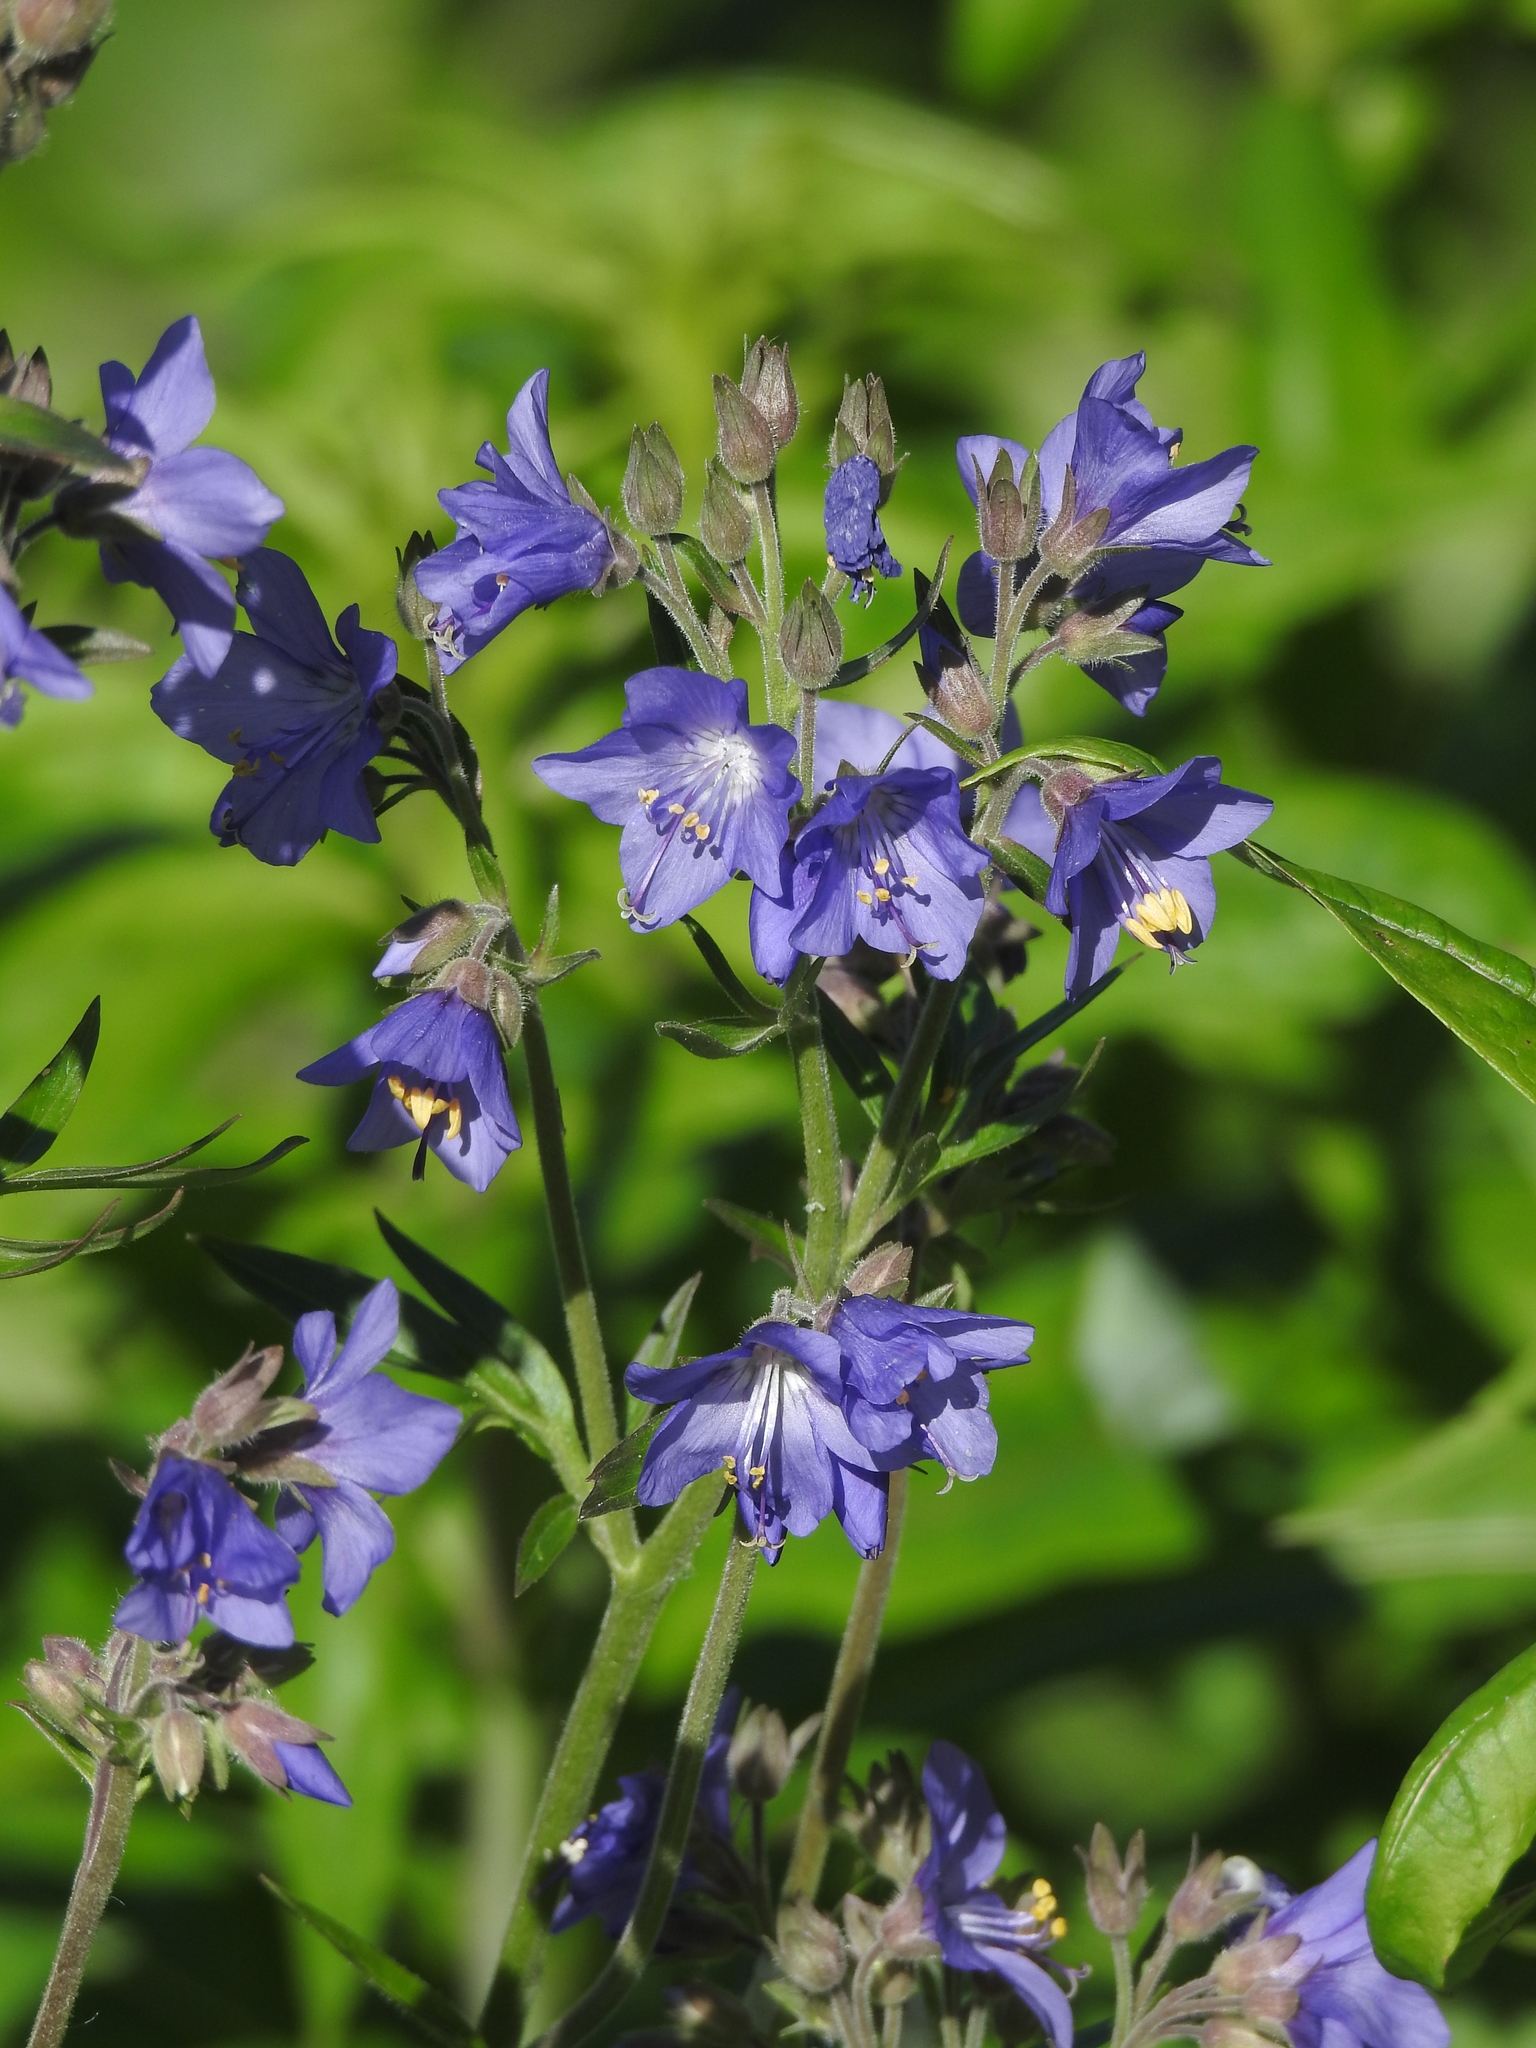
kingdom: Plantae
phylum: Tracheophyta
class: Magnoliopsida
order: Ericales
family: Polemoniaceae
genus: Polemonium
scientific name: Polemonium caeruleum
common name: Jacob's-ladder
